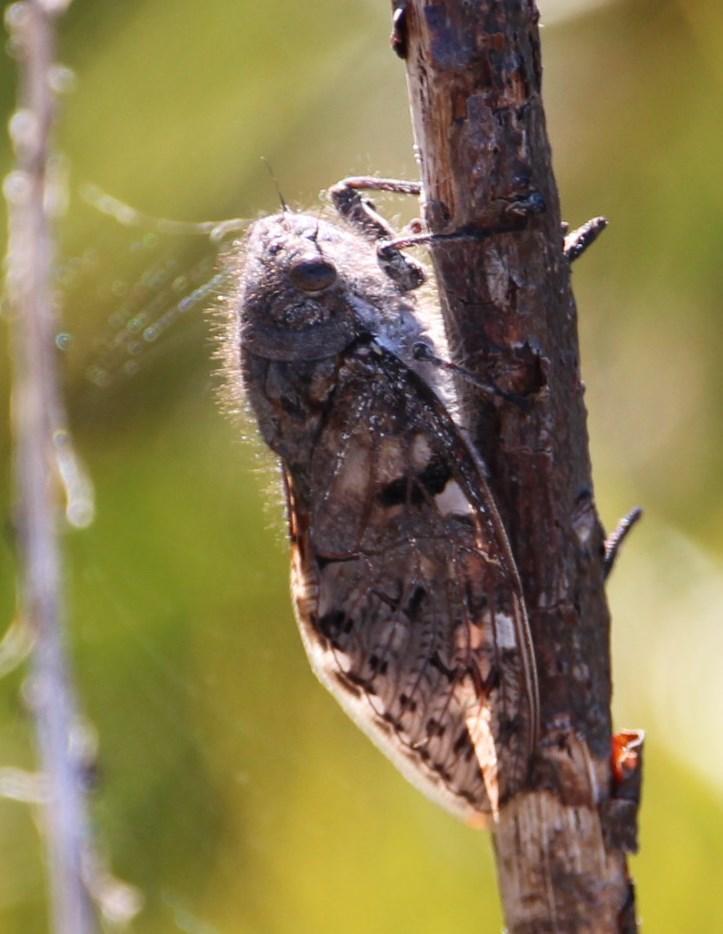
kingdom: Animalia
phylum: Arthropoda
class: Insecta
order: Hemiptera
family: Cicadidae
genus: Capcicada
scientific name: Capcicada absimilis
